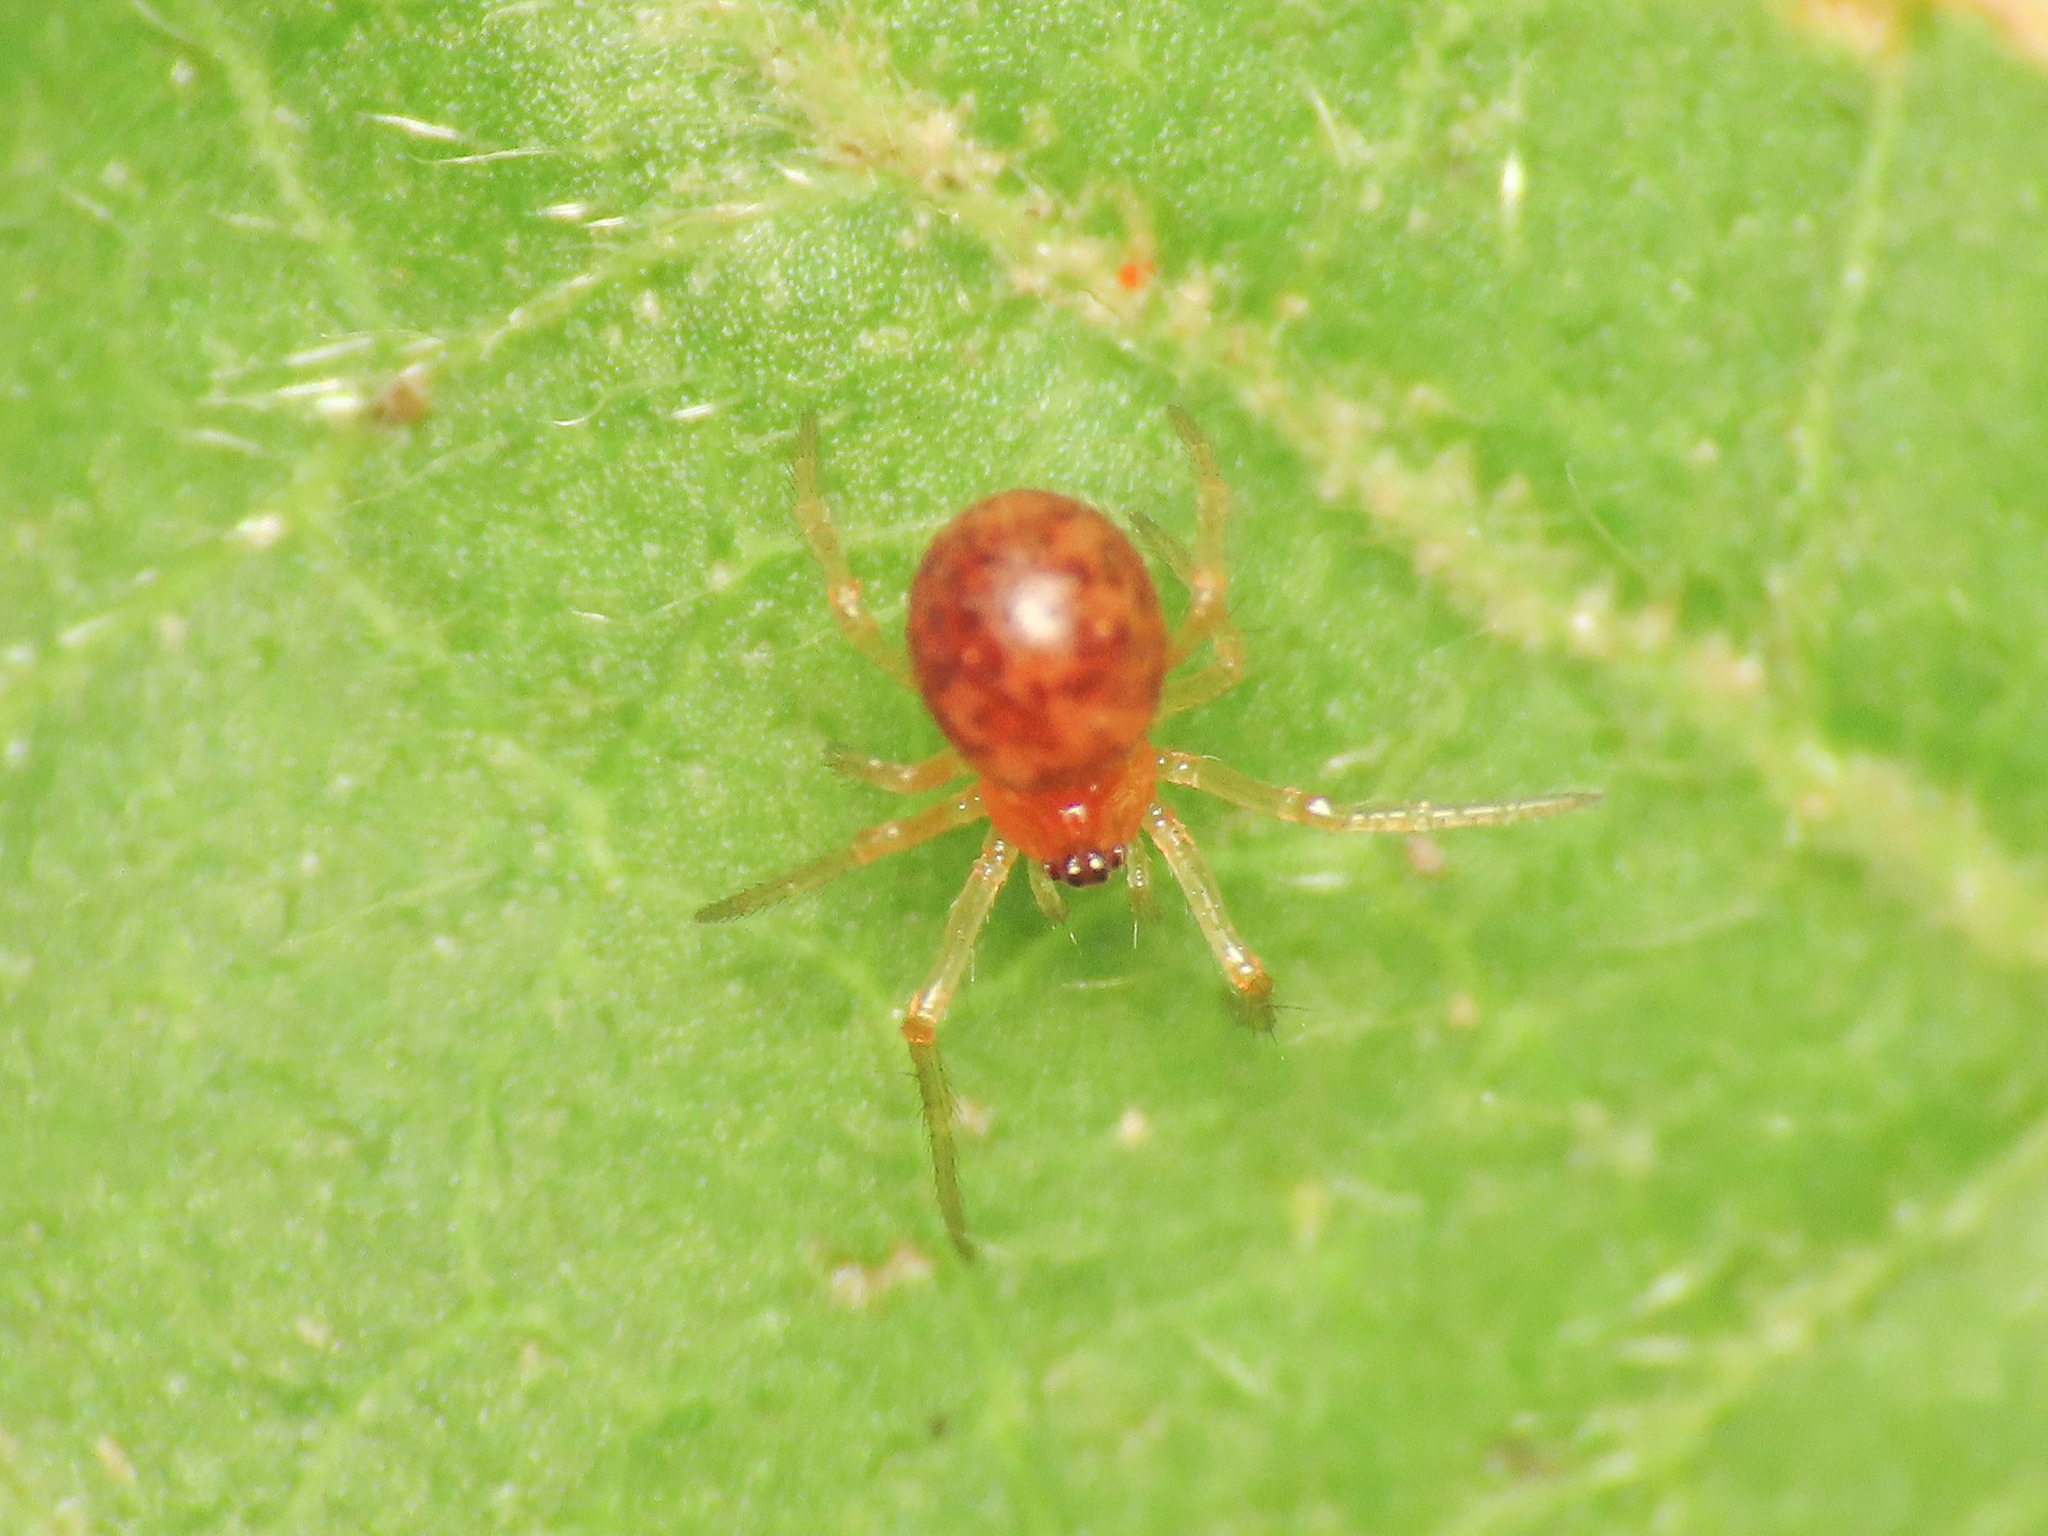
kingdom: Animalia
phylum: Arthropoda
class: Arachnida
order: Araneae
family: Theridiidae
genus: Ruborridion
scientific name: Ruborridion musivum
